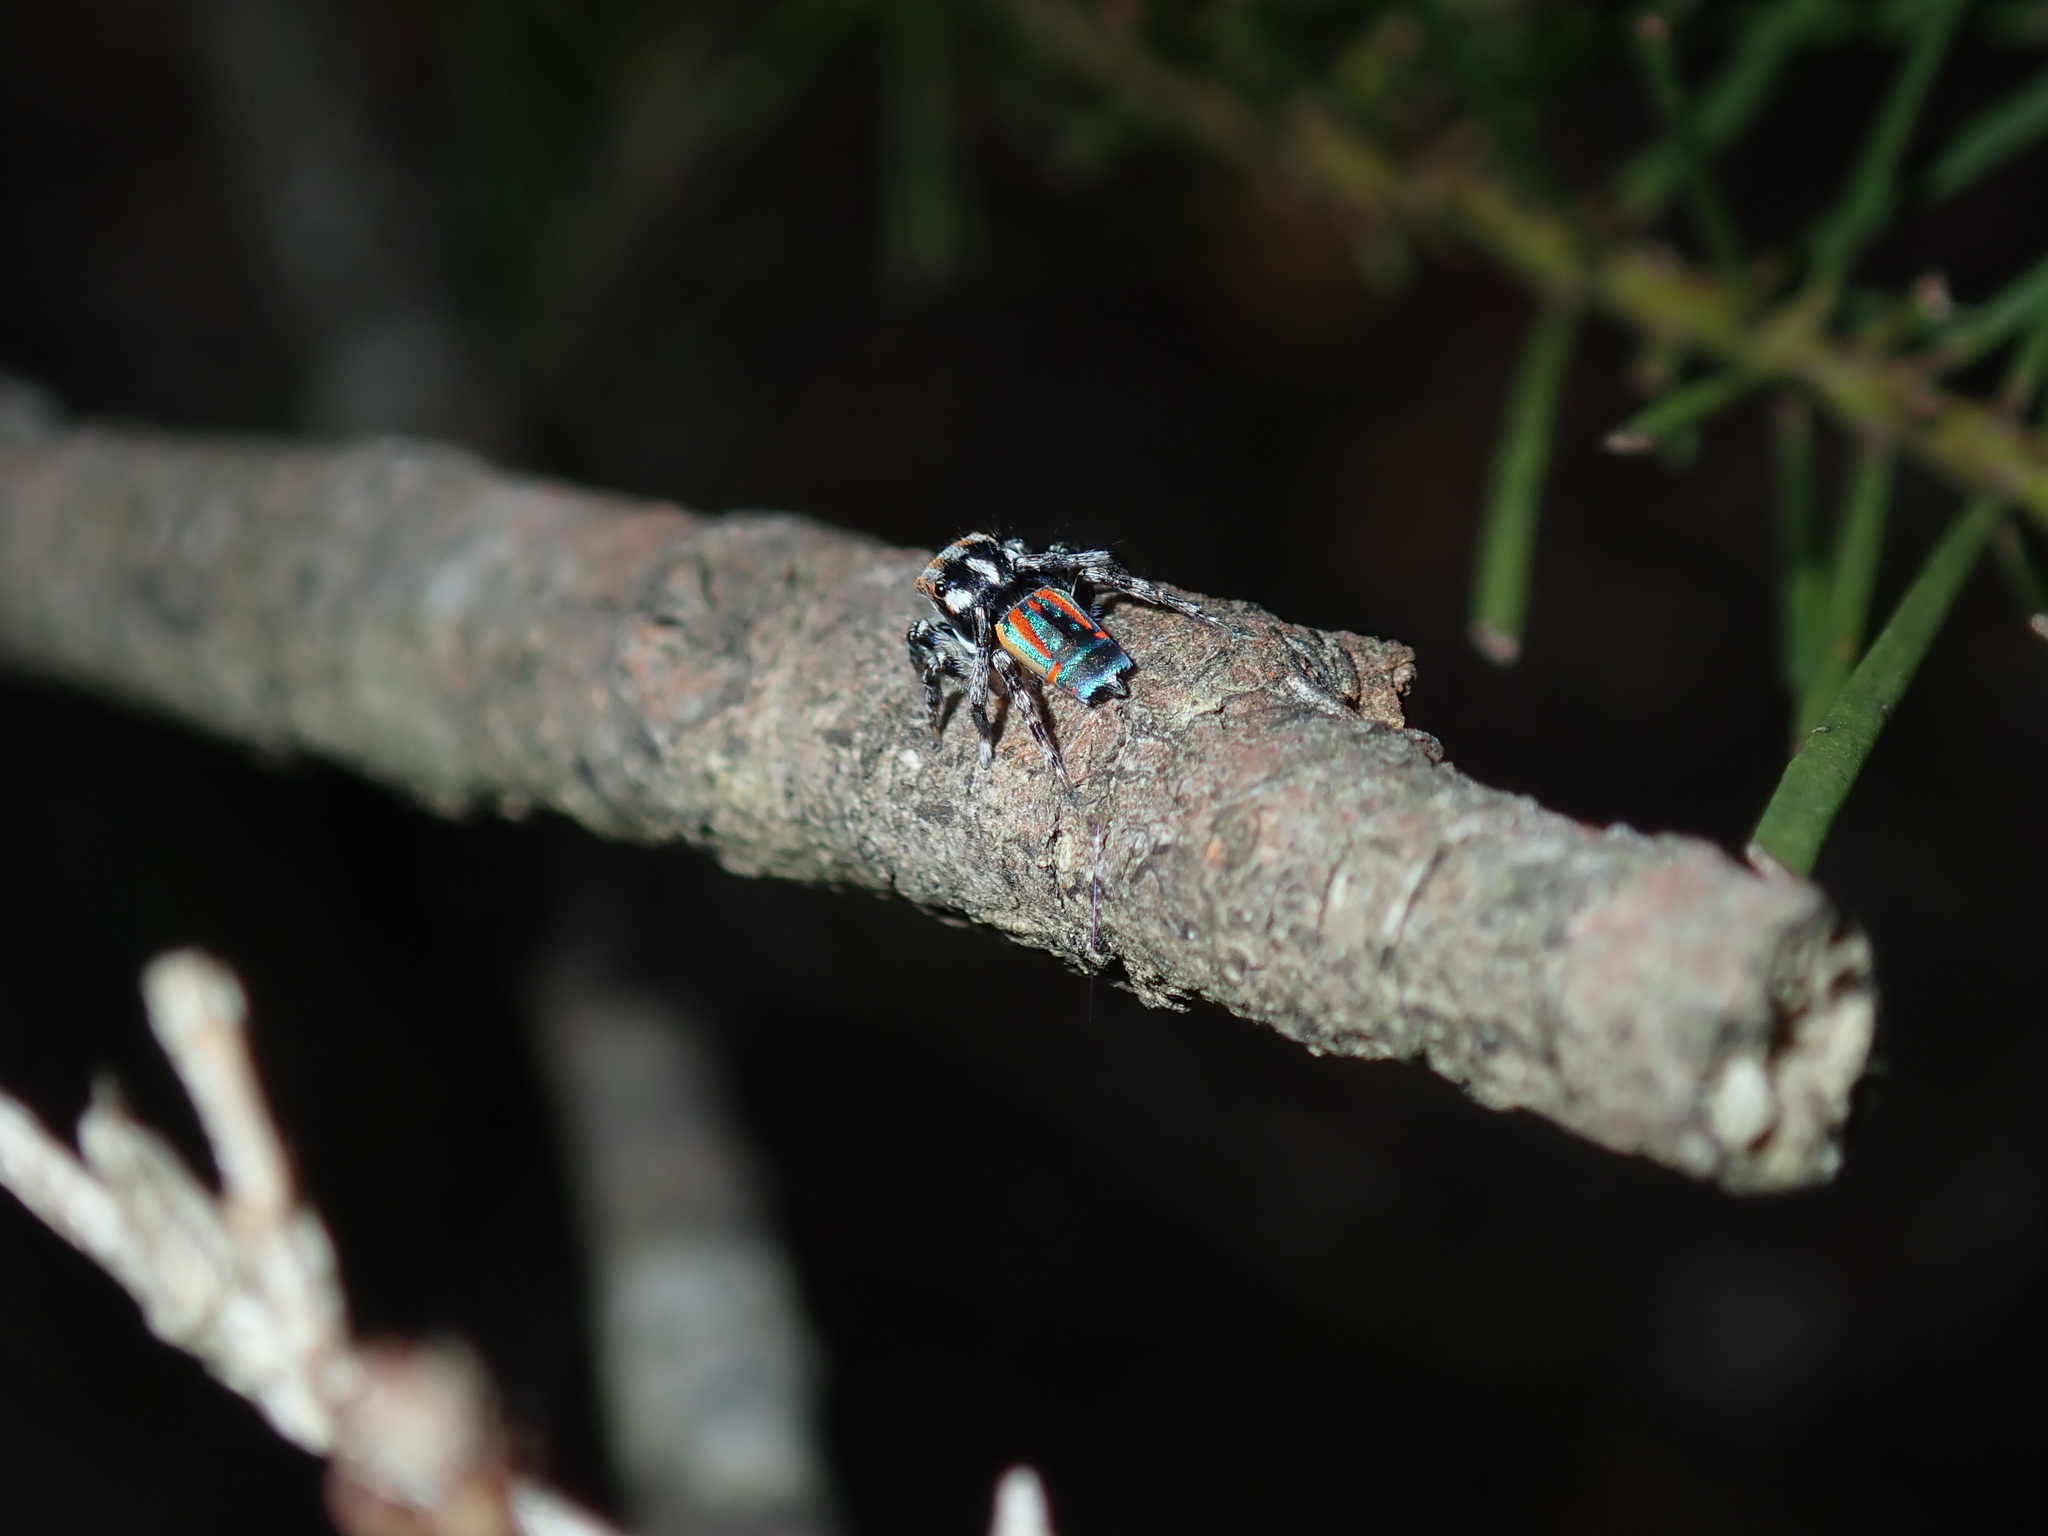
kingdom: Animalia
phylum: Arthropoda
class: Arachnida
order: Araneae
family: Salticidae
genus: Maratus
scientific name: Maratus volans
